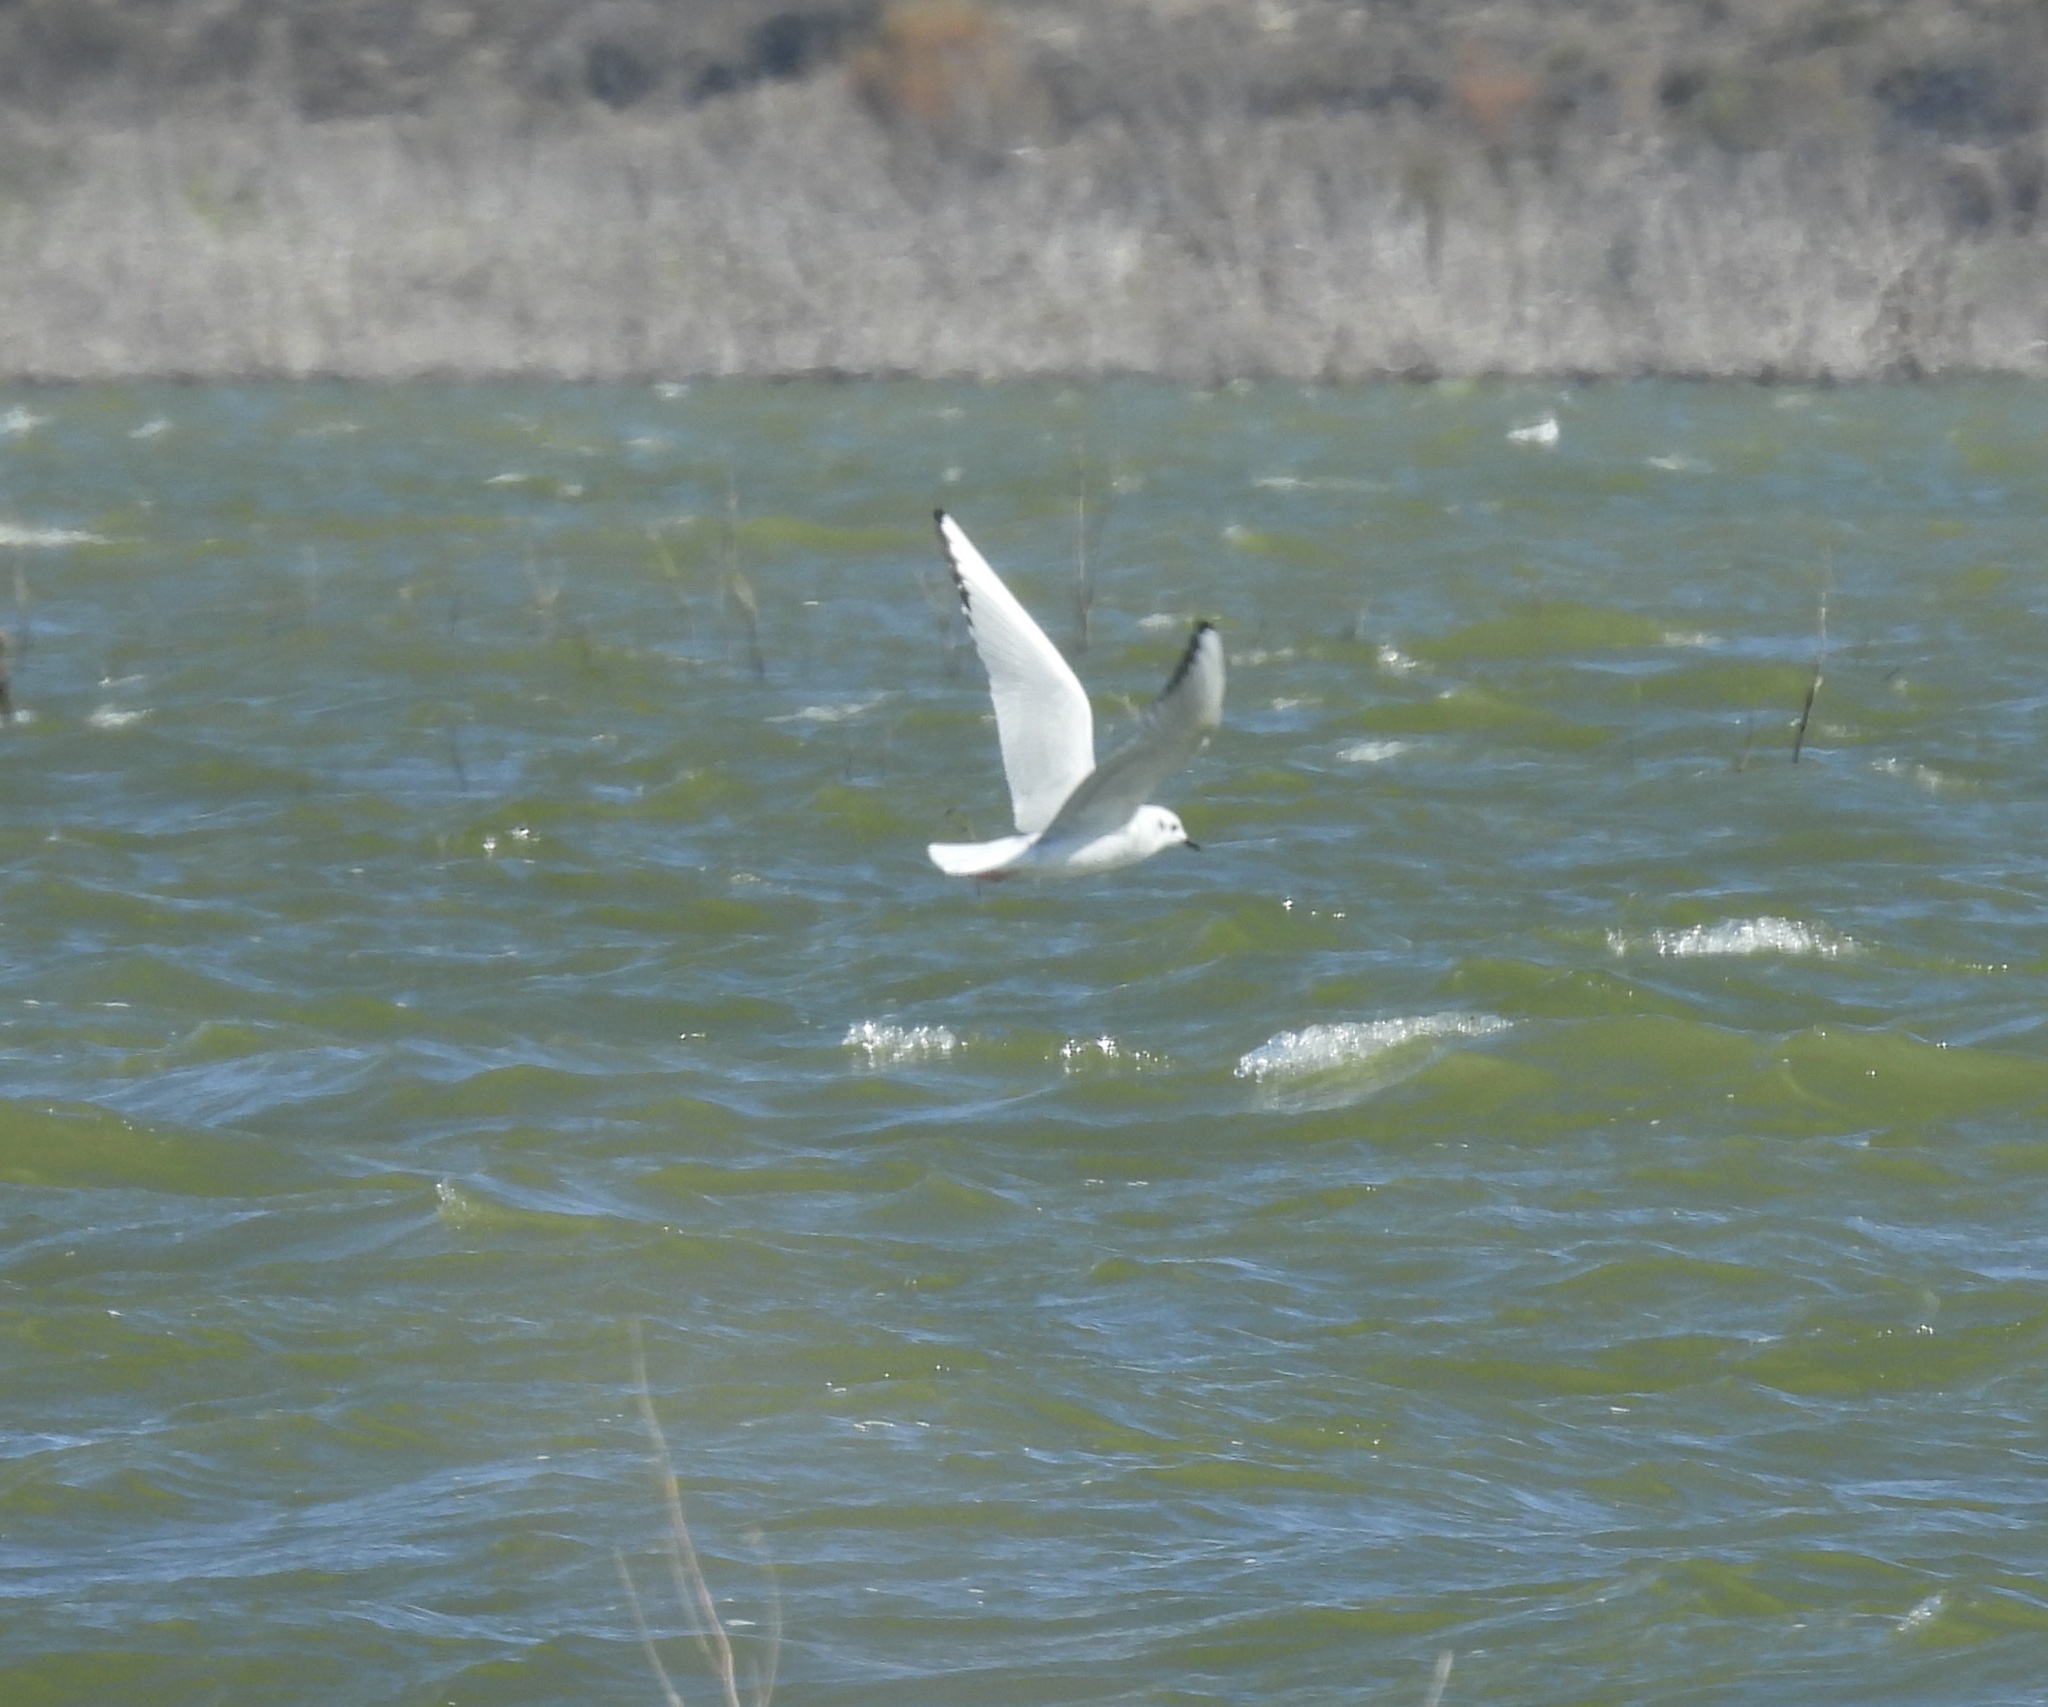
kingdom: Animalia
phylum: Chordata
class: Aves
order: Charadriiformes
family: Laridae
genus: Chroicocephalus
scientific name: Chroicocephalus philadelphia
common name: Bonaparte's gull
